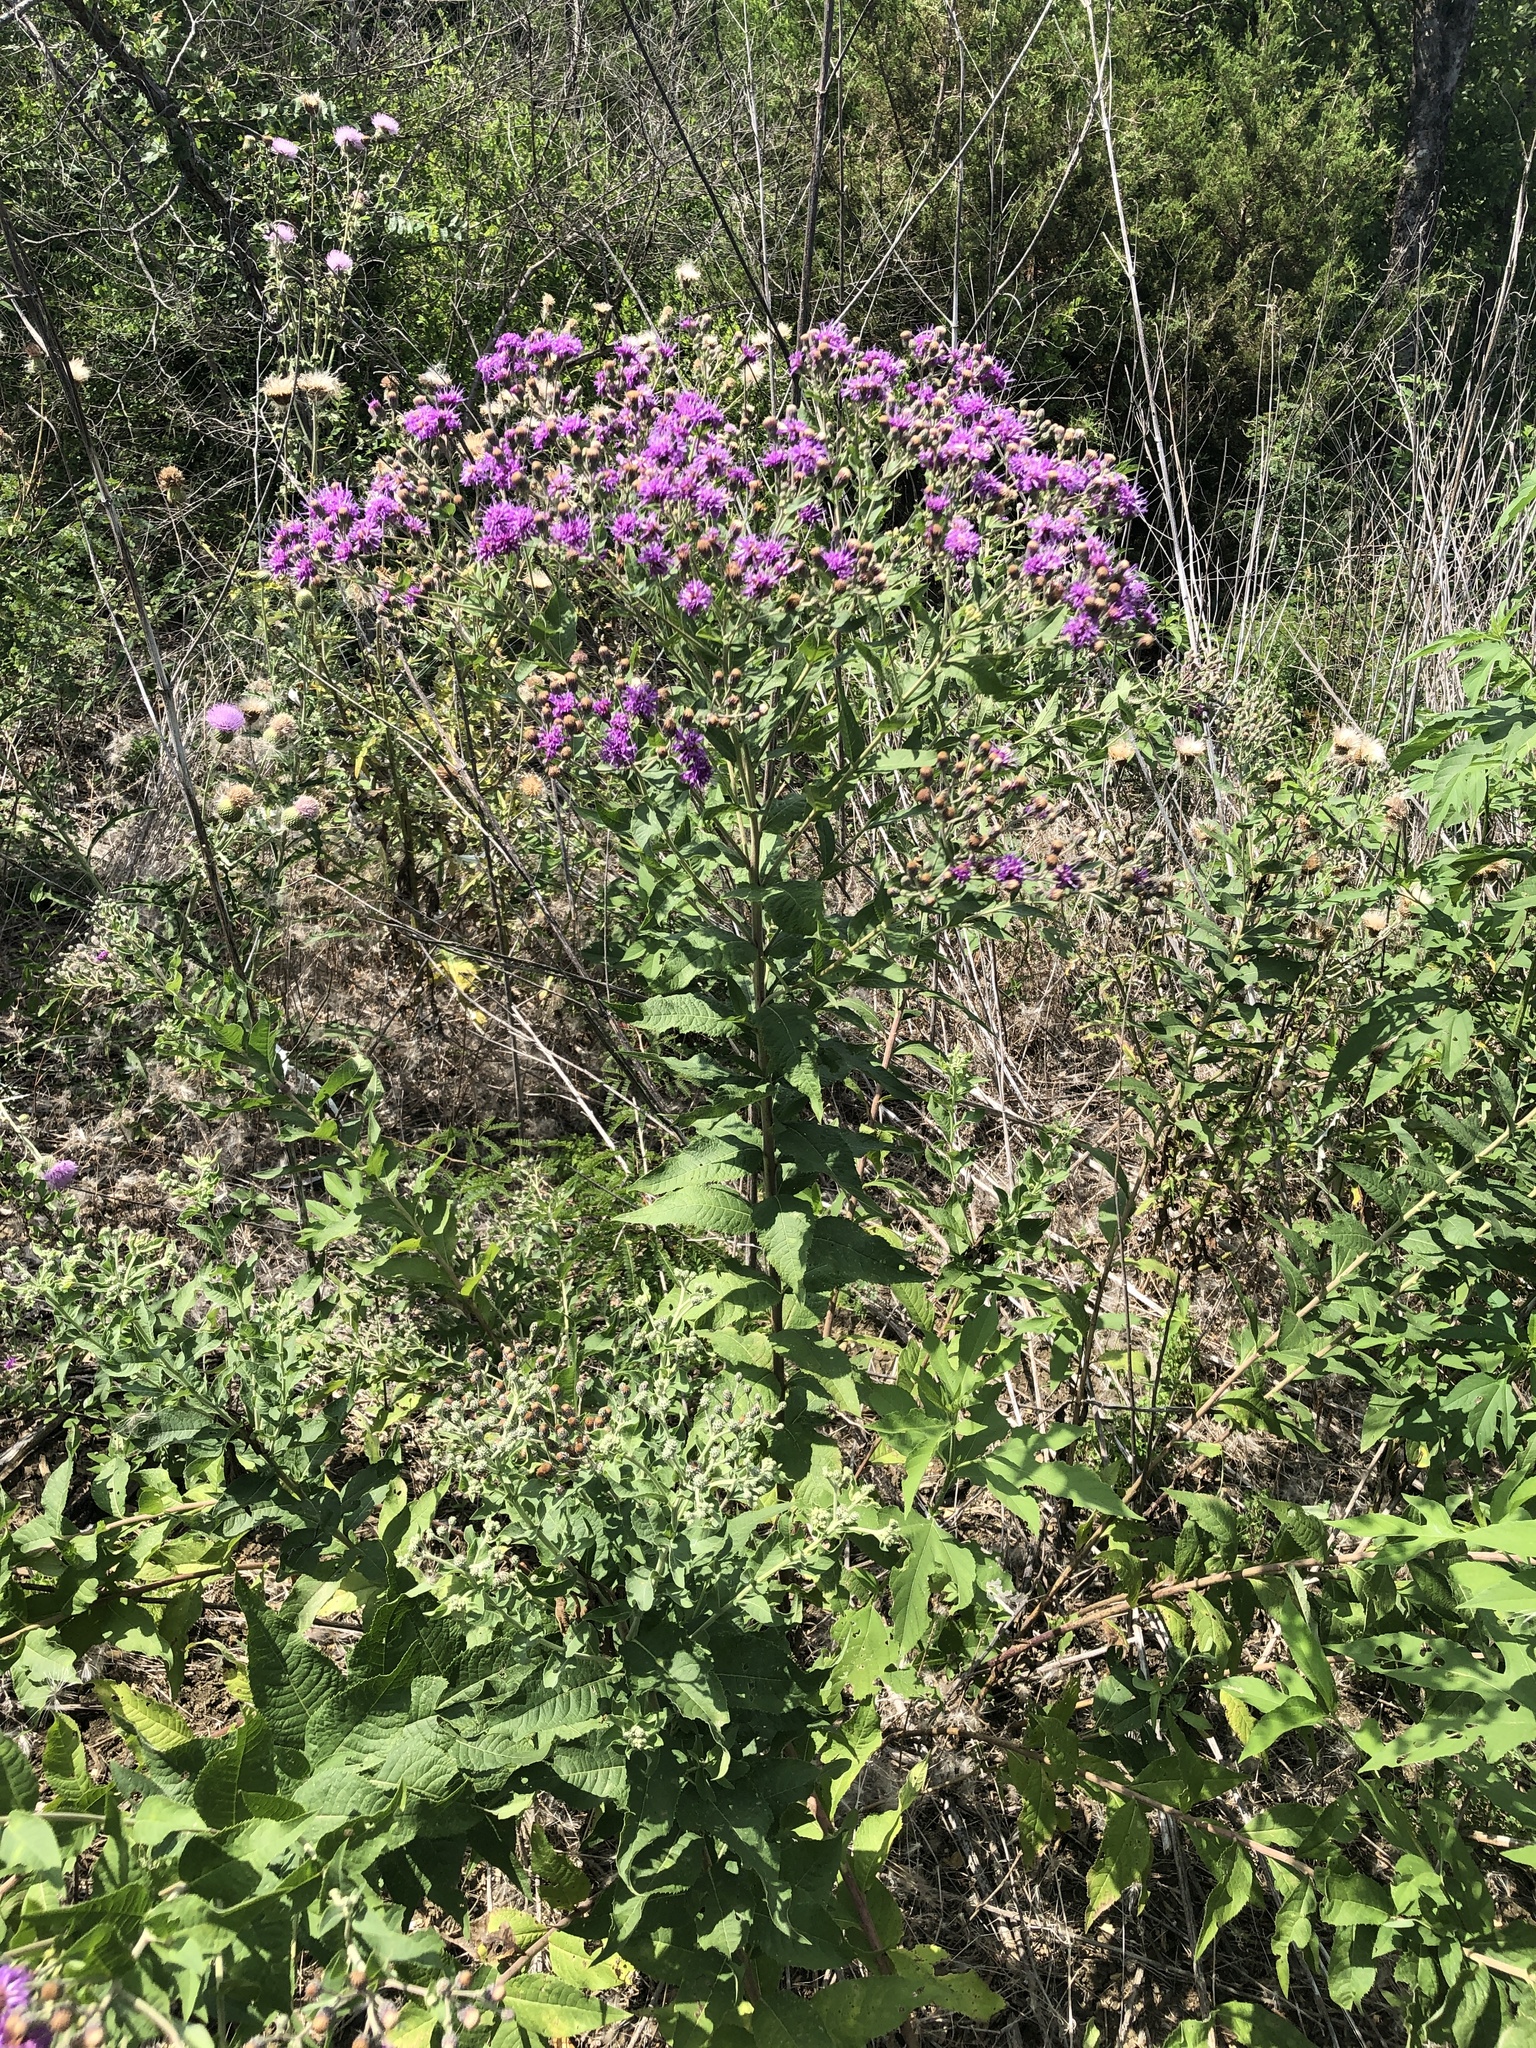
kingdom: Plantae
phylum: Tracheophyta
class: Magnoliopsida
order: Asterales
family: Asteraceae
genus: Vernonia
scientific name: Vernonia baldwinii
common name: Western ironweed
